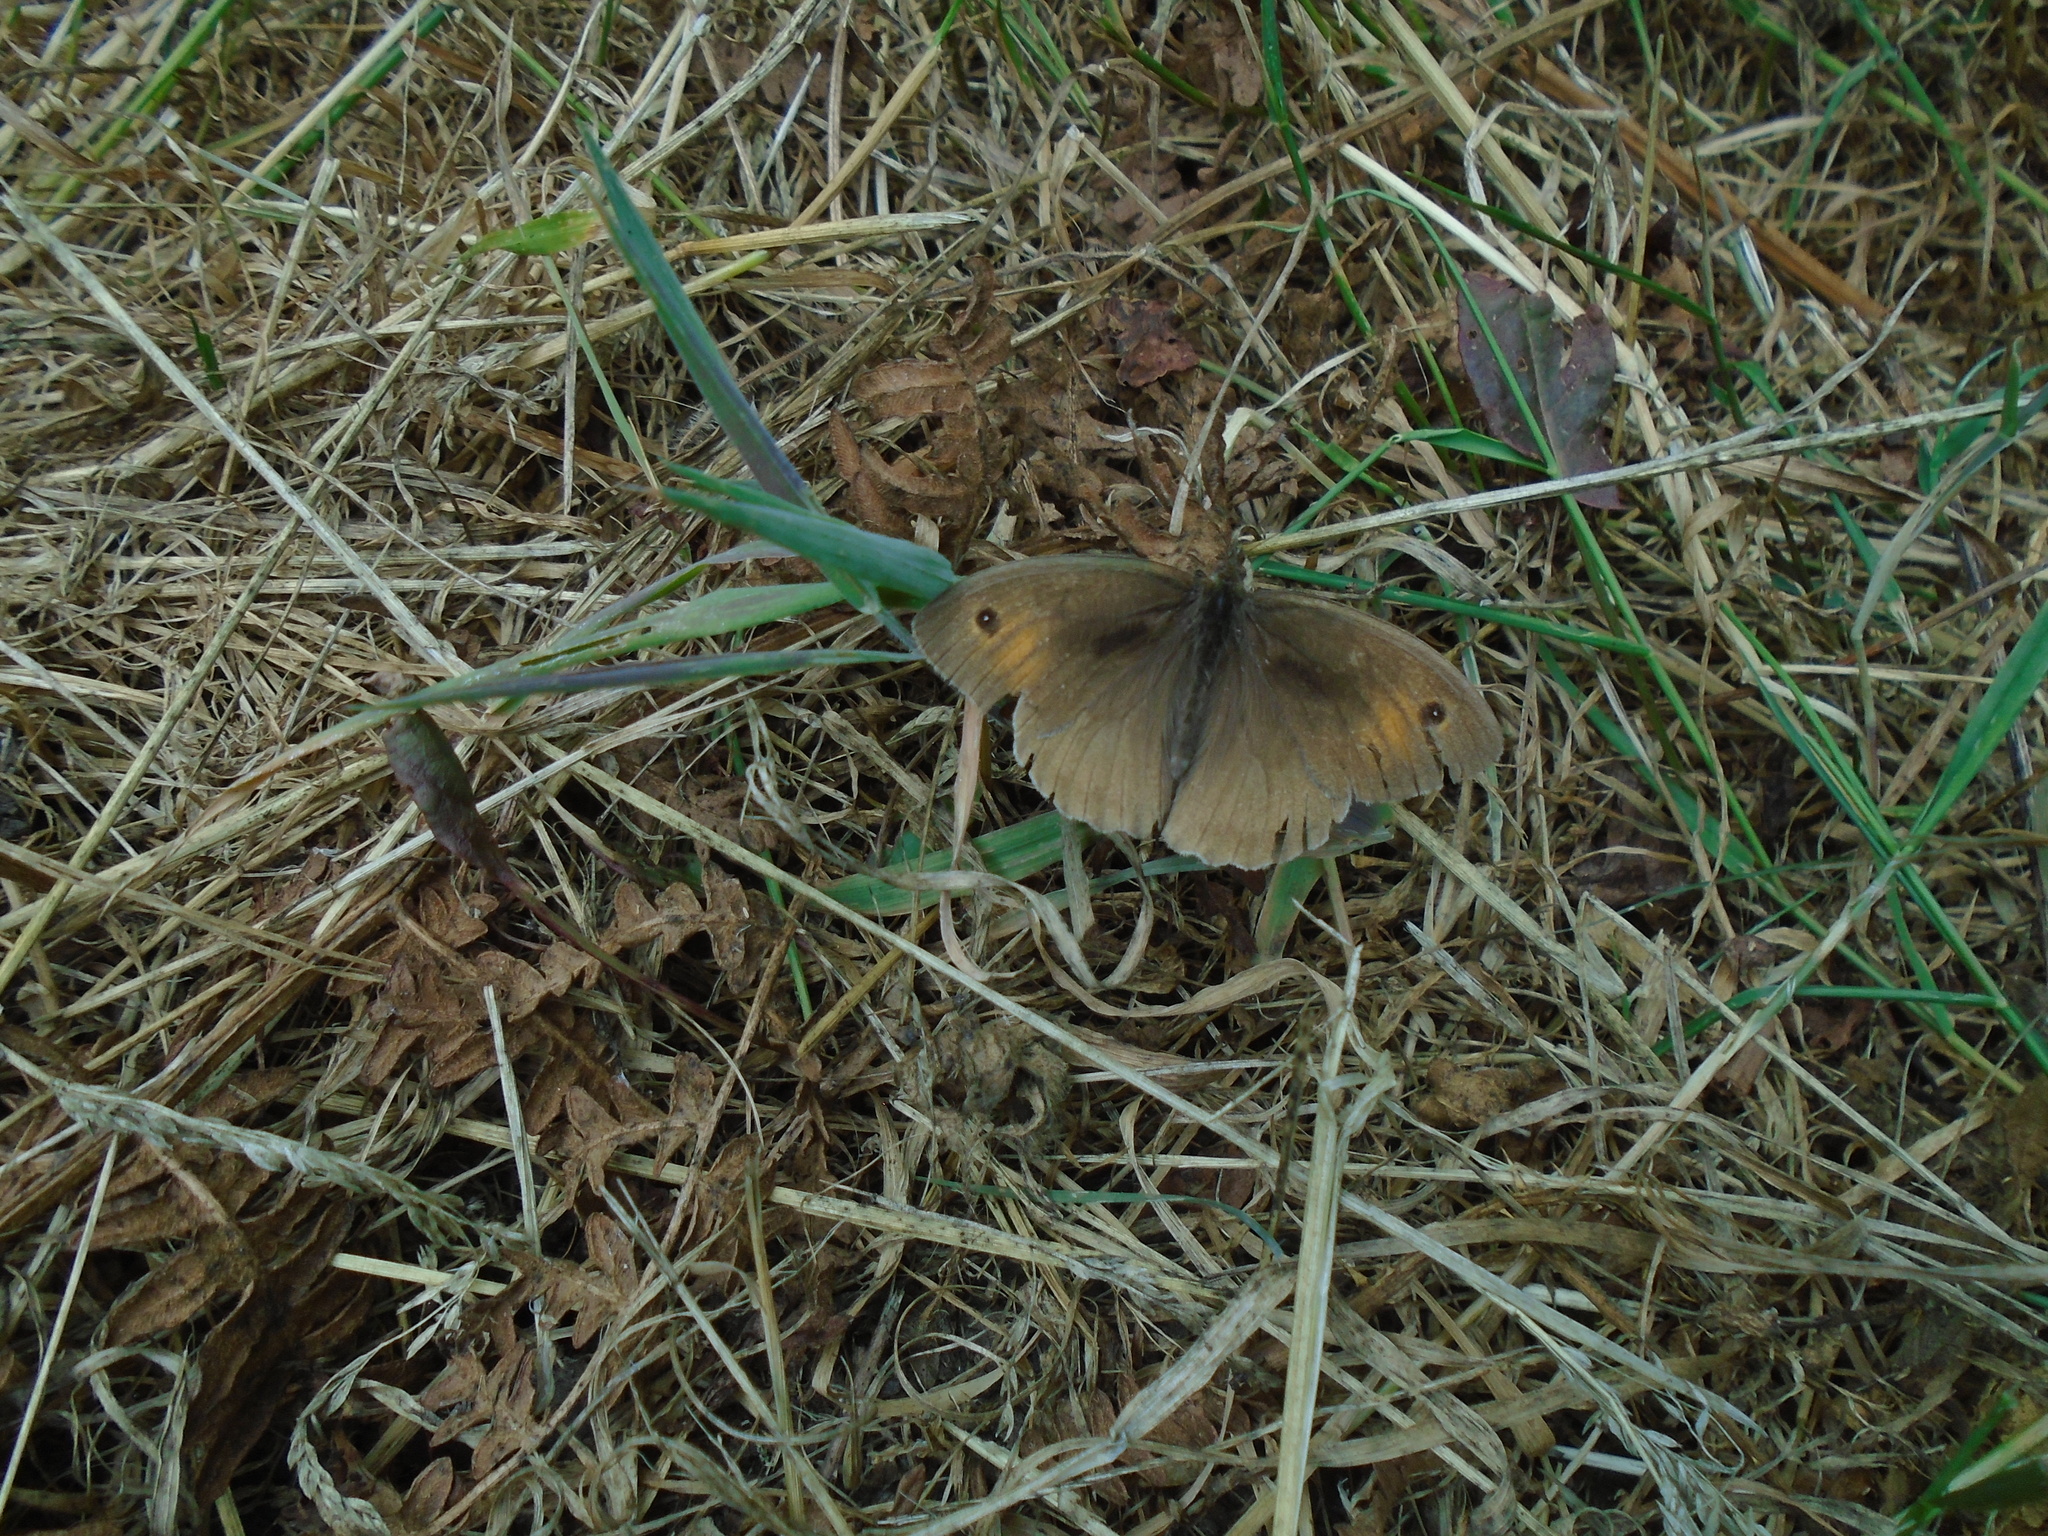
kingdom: Animalia
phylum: Arthropoda
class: Insecta
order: Lepidoptera
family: Nymphalidae
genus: Maniola
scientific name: Maniola jurtina
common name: Meadow brown
